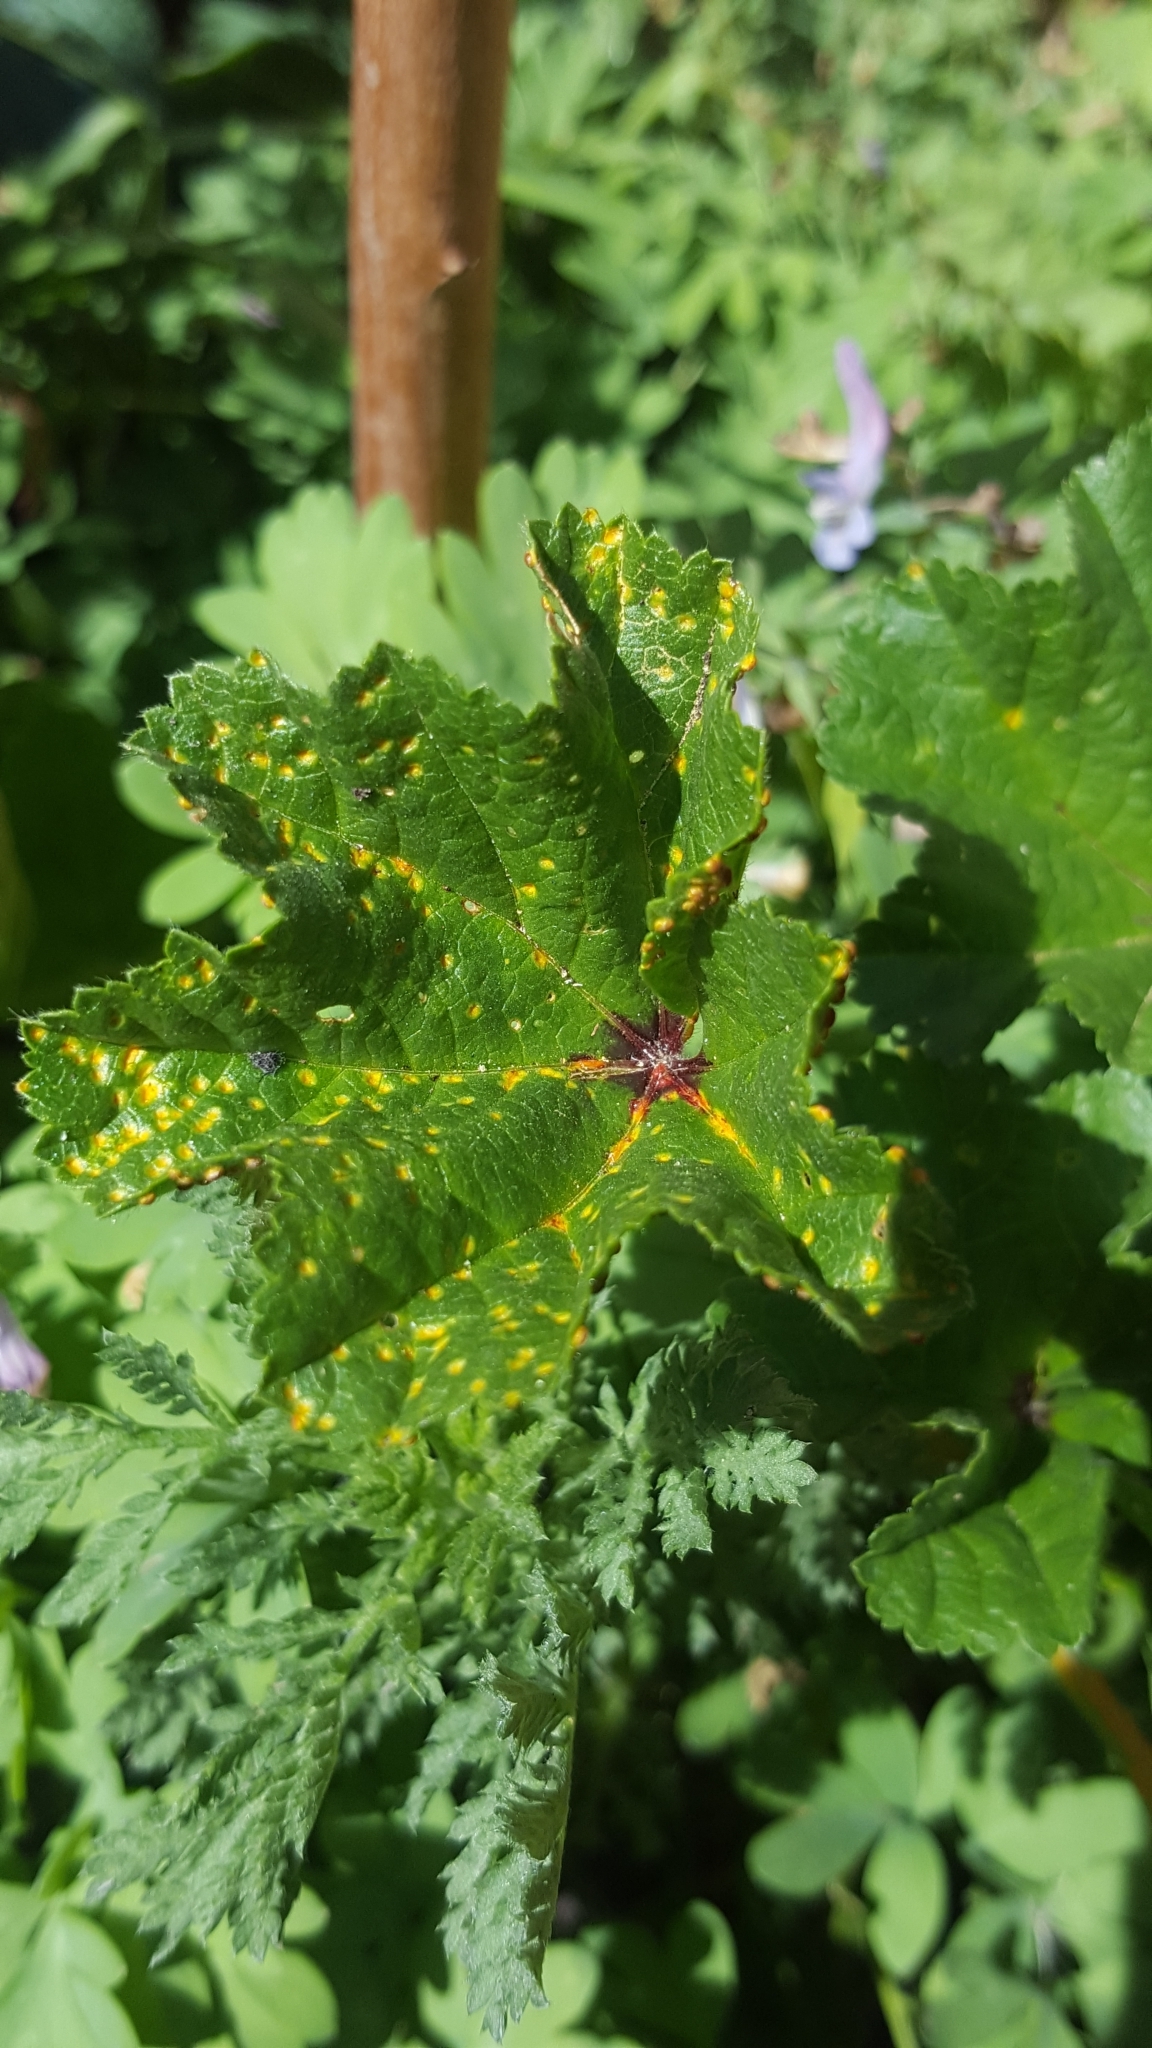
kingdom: Fungi
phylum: Basidiomycota
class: Pucciniomycetes
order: Pucciniales
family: Pucciniaceae
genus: Puccinia
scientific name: Puccinia malvacearum
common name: Hollyhock rust
